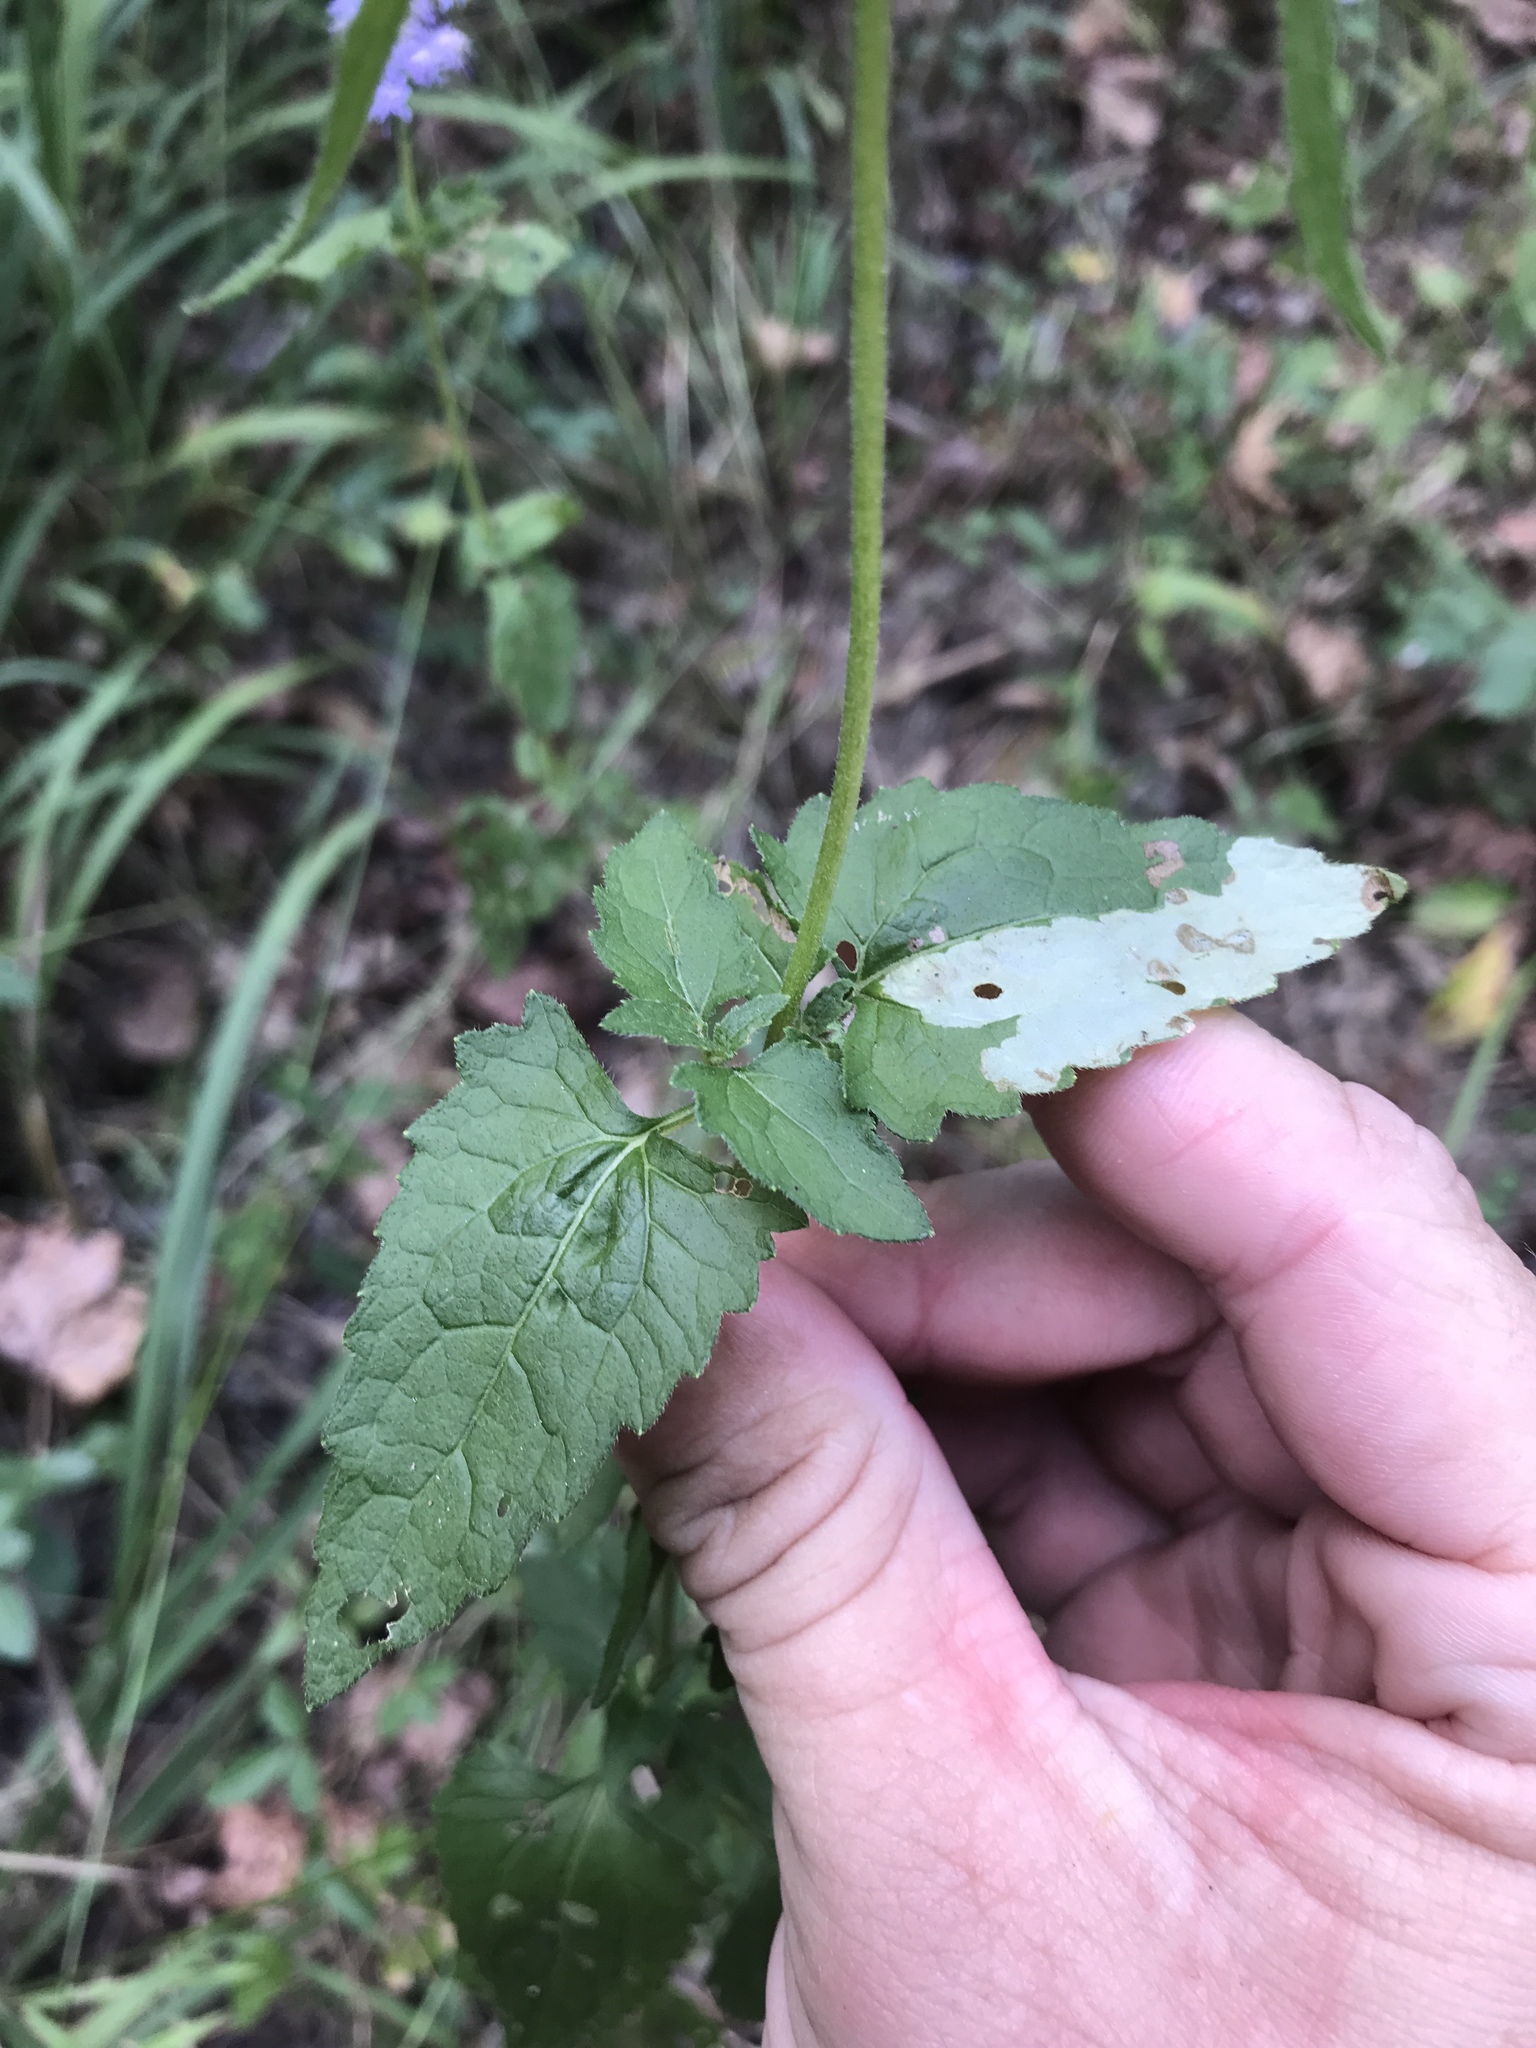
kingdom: Plantae
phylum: Tracheophyta
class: Magnoliopsida
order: Asterales
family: Asteraceae
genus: Conoclinium
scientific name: Conoclinium coelestinum
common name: Blue mistflower
